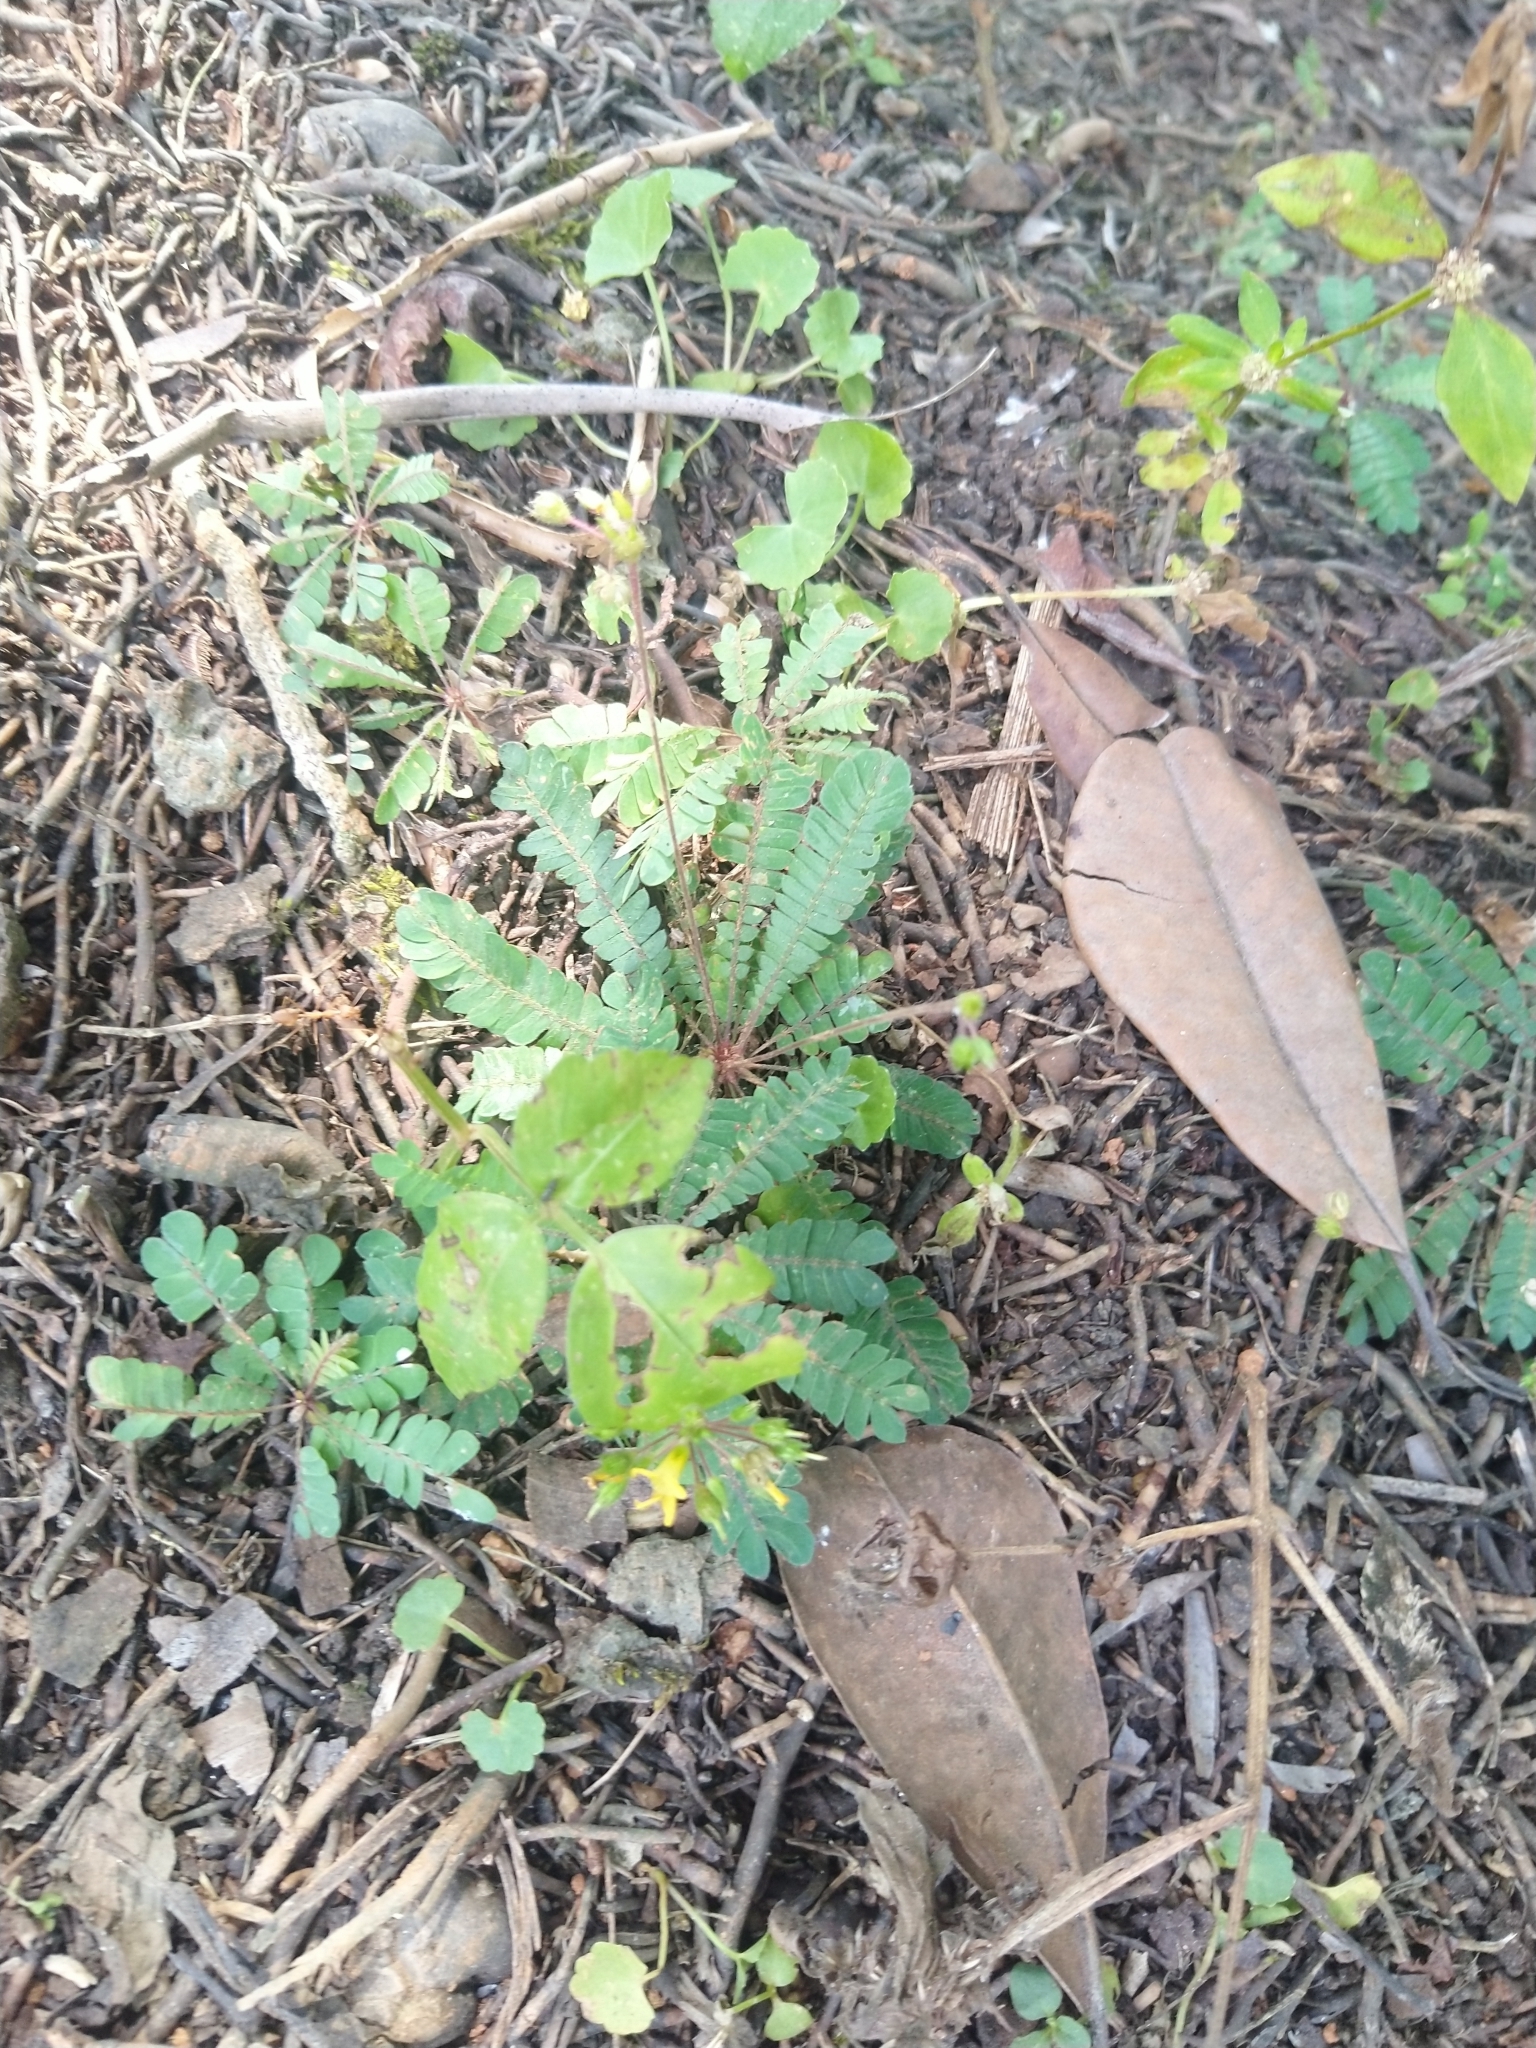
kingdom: Plantae
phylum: Tracheophyta
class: Magnoliopsida
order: Oxalidales
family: Oxalidaceae
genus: Biophytum
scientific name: Biophytum sensitivum
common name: Lifeplant
